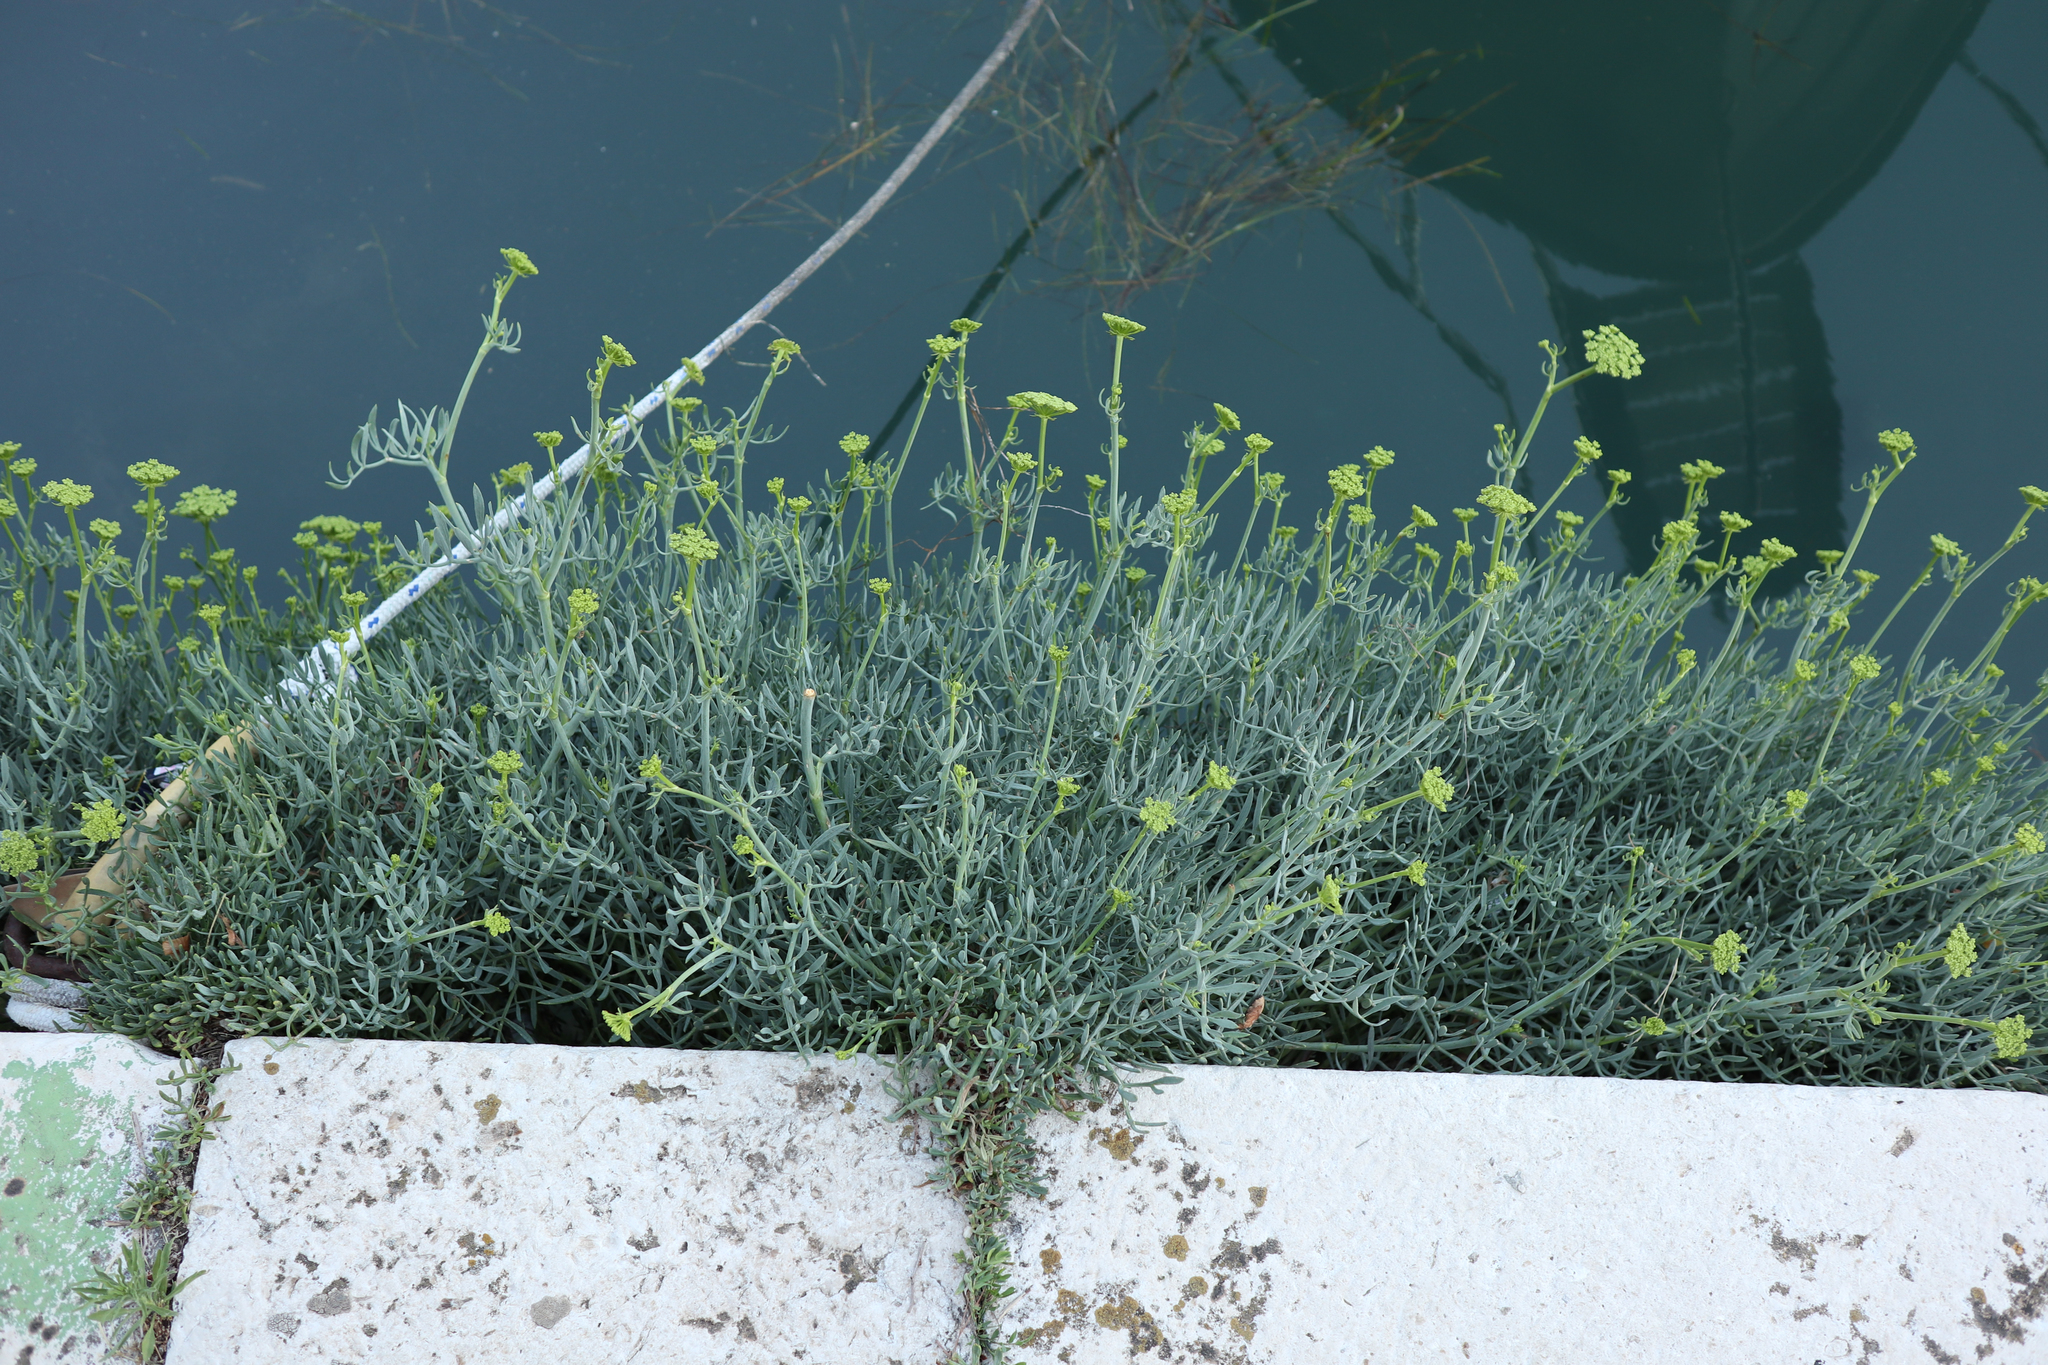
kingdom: Plantae
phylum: Tracheophyta
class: Magnoliopsida
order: Apiales
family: Apiaceae
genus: Crithmum
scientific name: Crithmum maritimum
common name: Rock samphire
